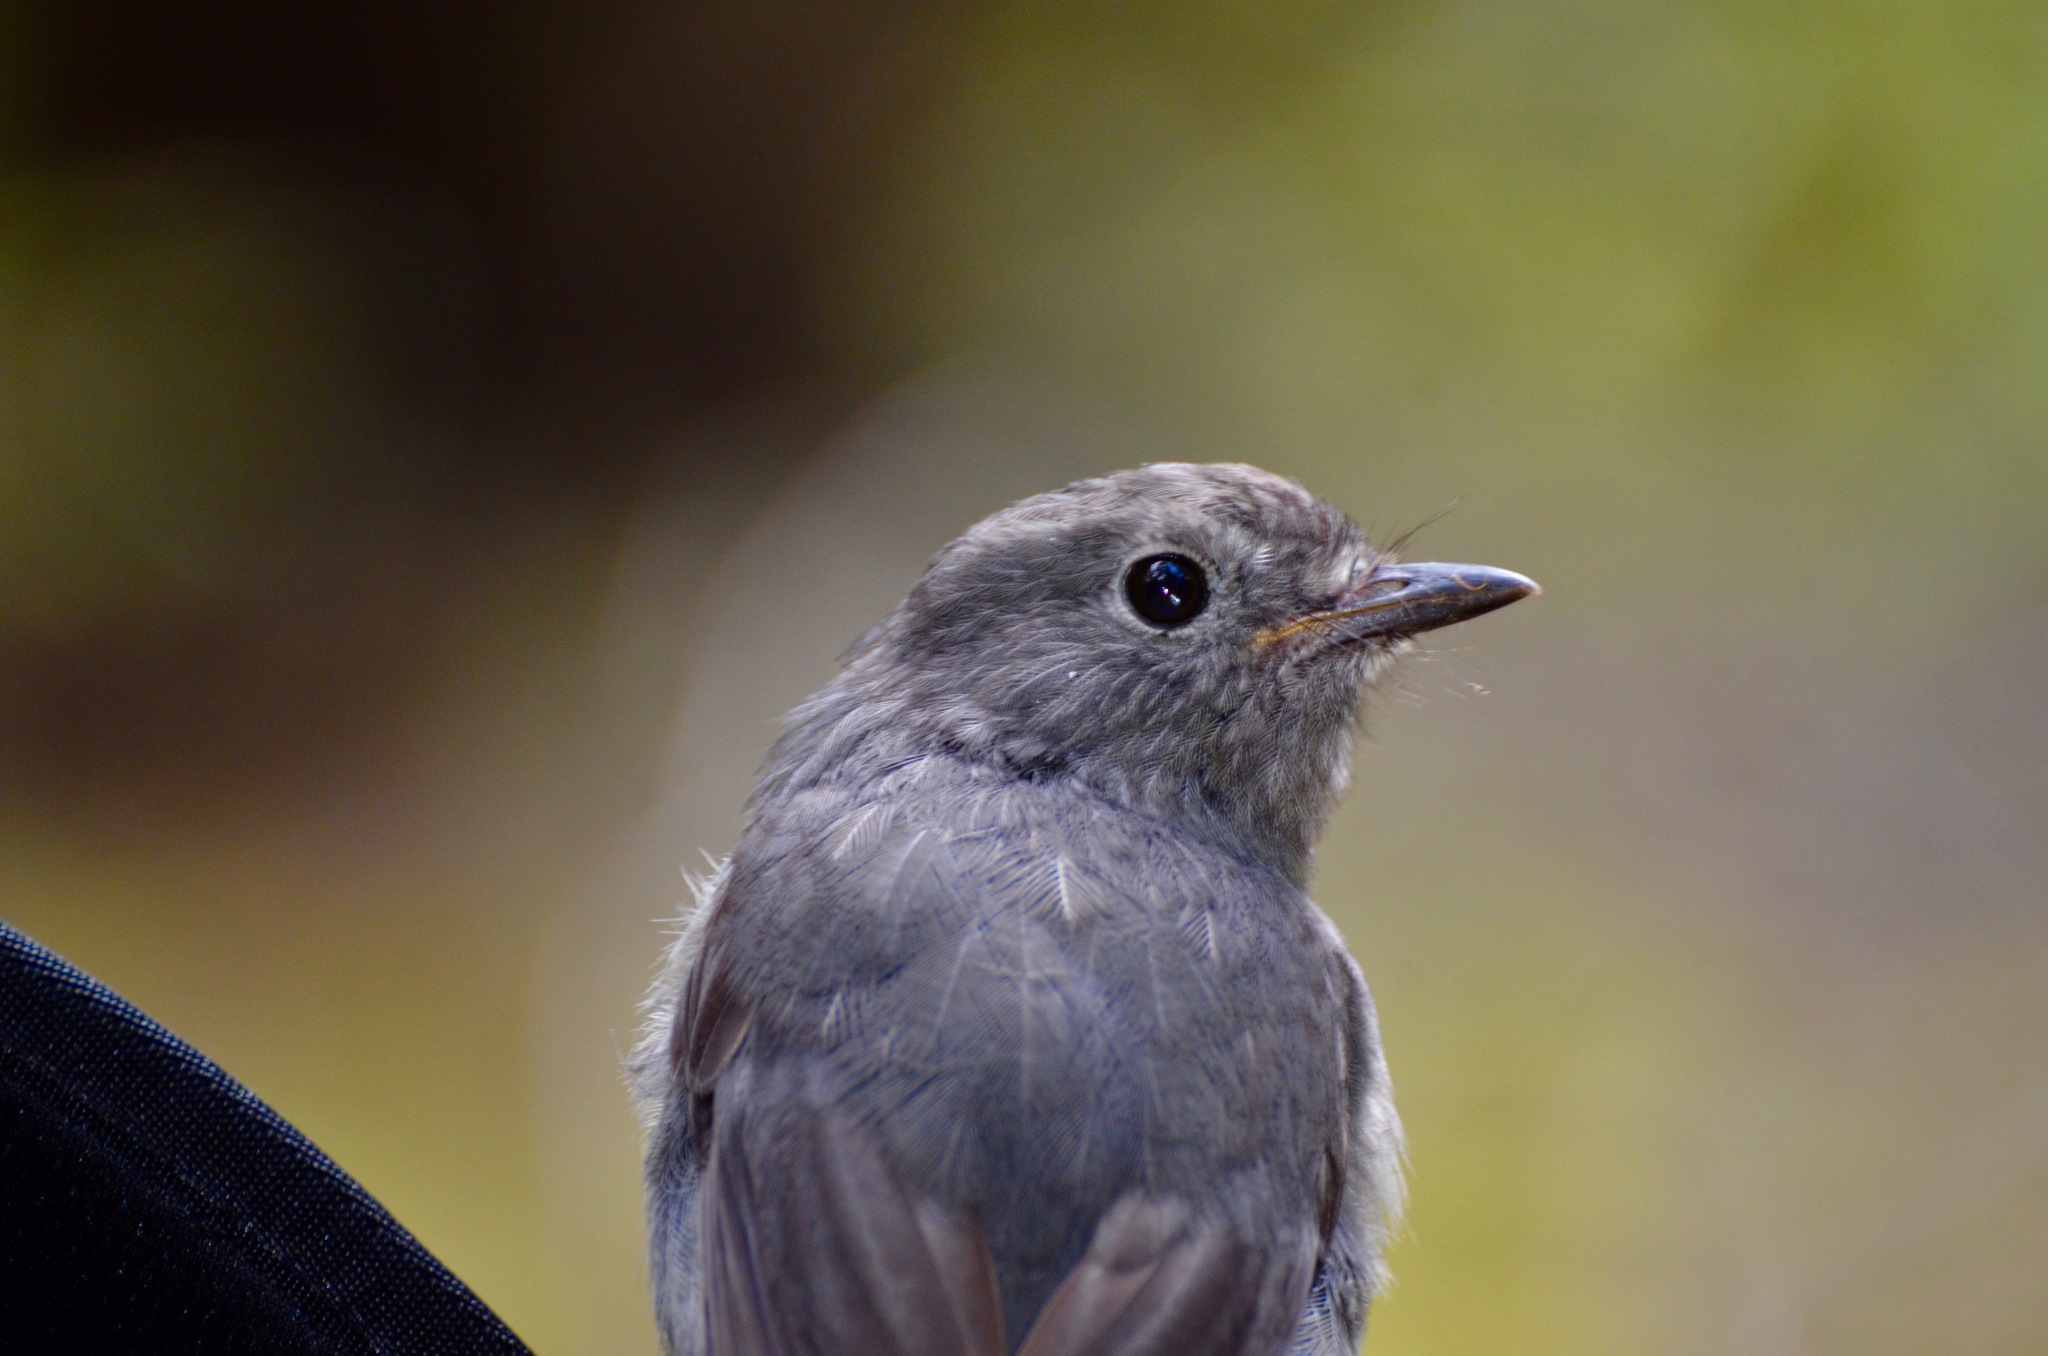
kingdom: Animalia
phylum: Chordata
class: Aves
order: Passeriformes
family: Petroicidae
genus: Petroica
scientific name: Petroica australis
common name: New zealand robin
